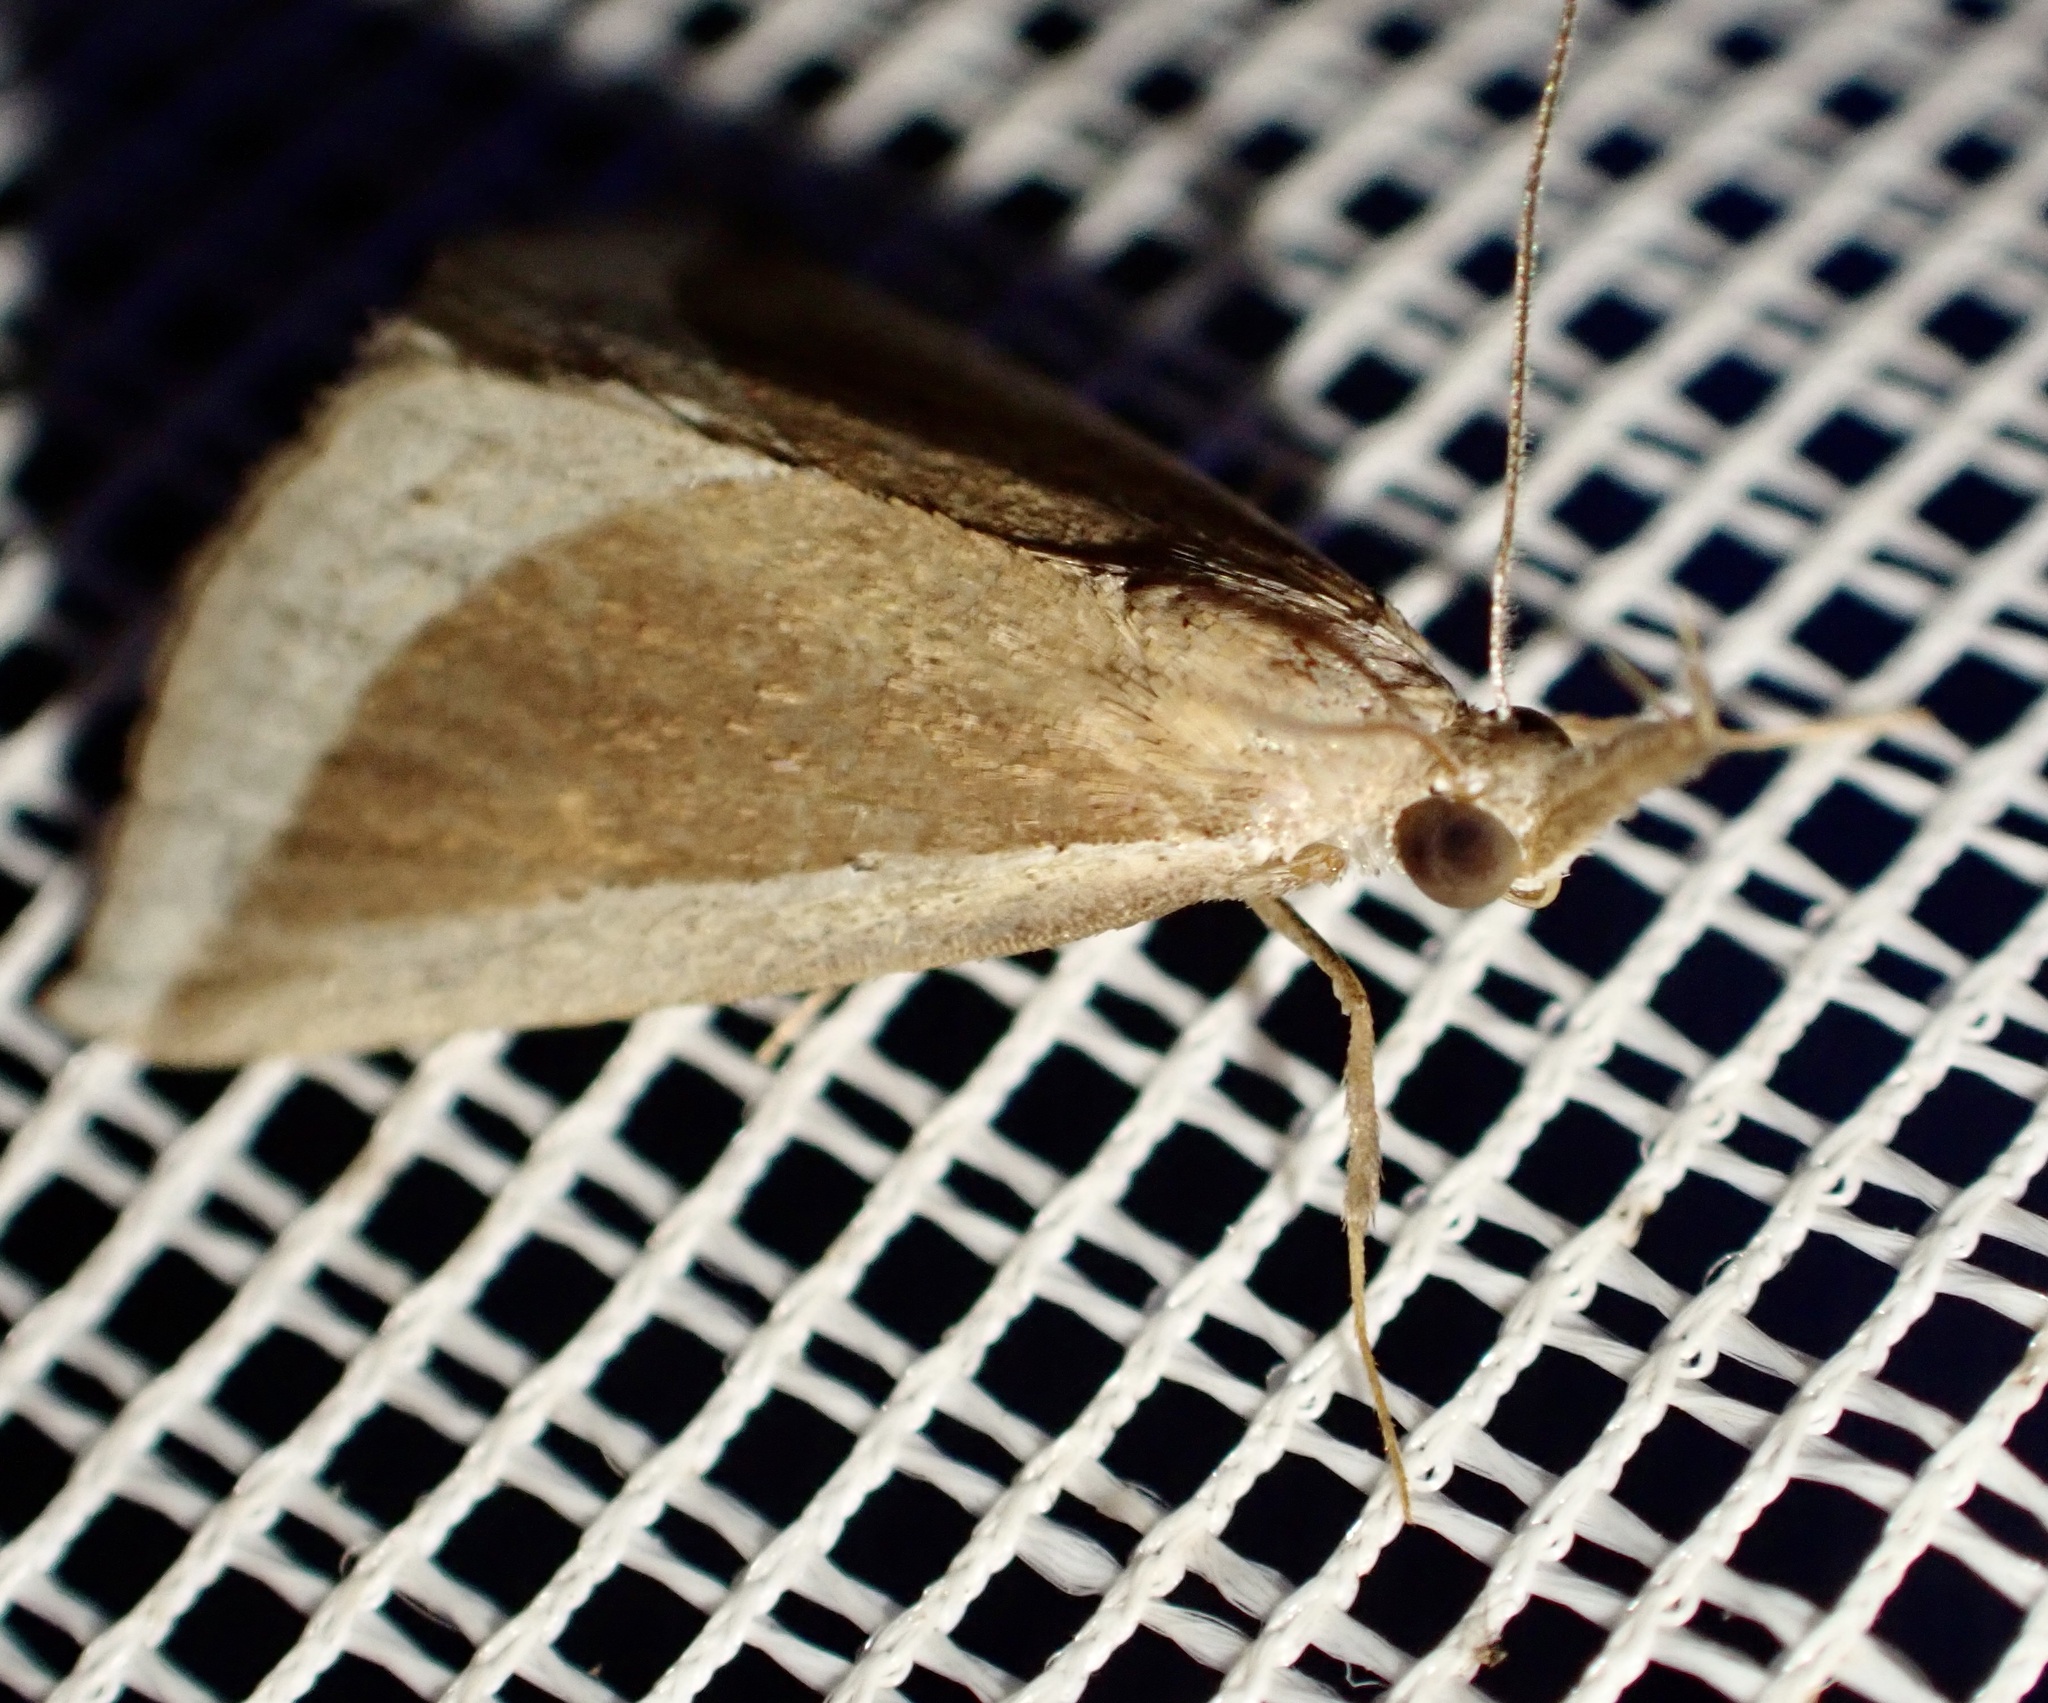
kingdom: Animalia
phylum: Arthropoda
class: Insecta
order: Lepidoptera
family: Erebidae
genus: Hypena
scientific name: Hypena conscitalis
